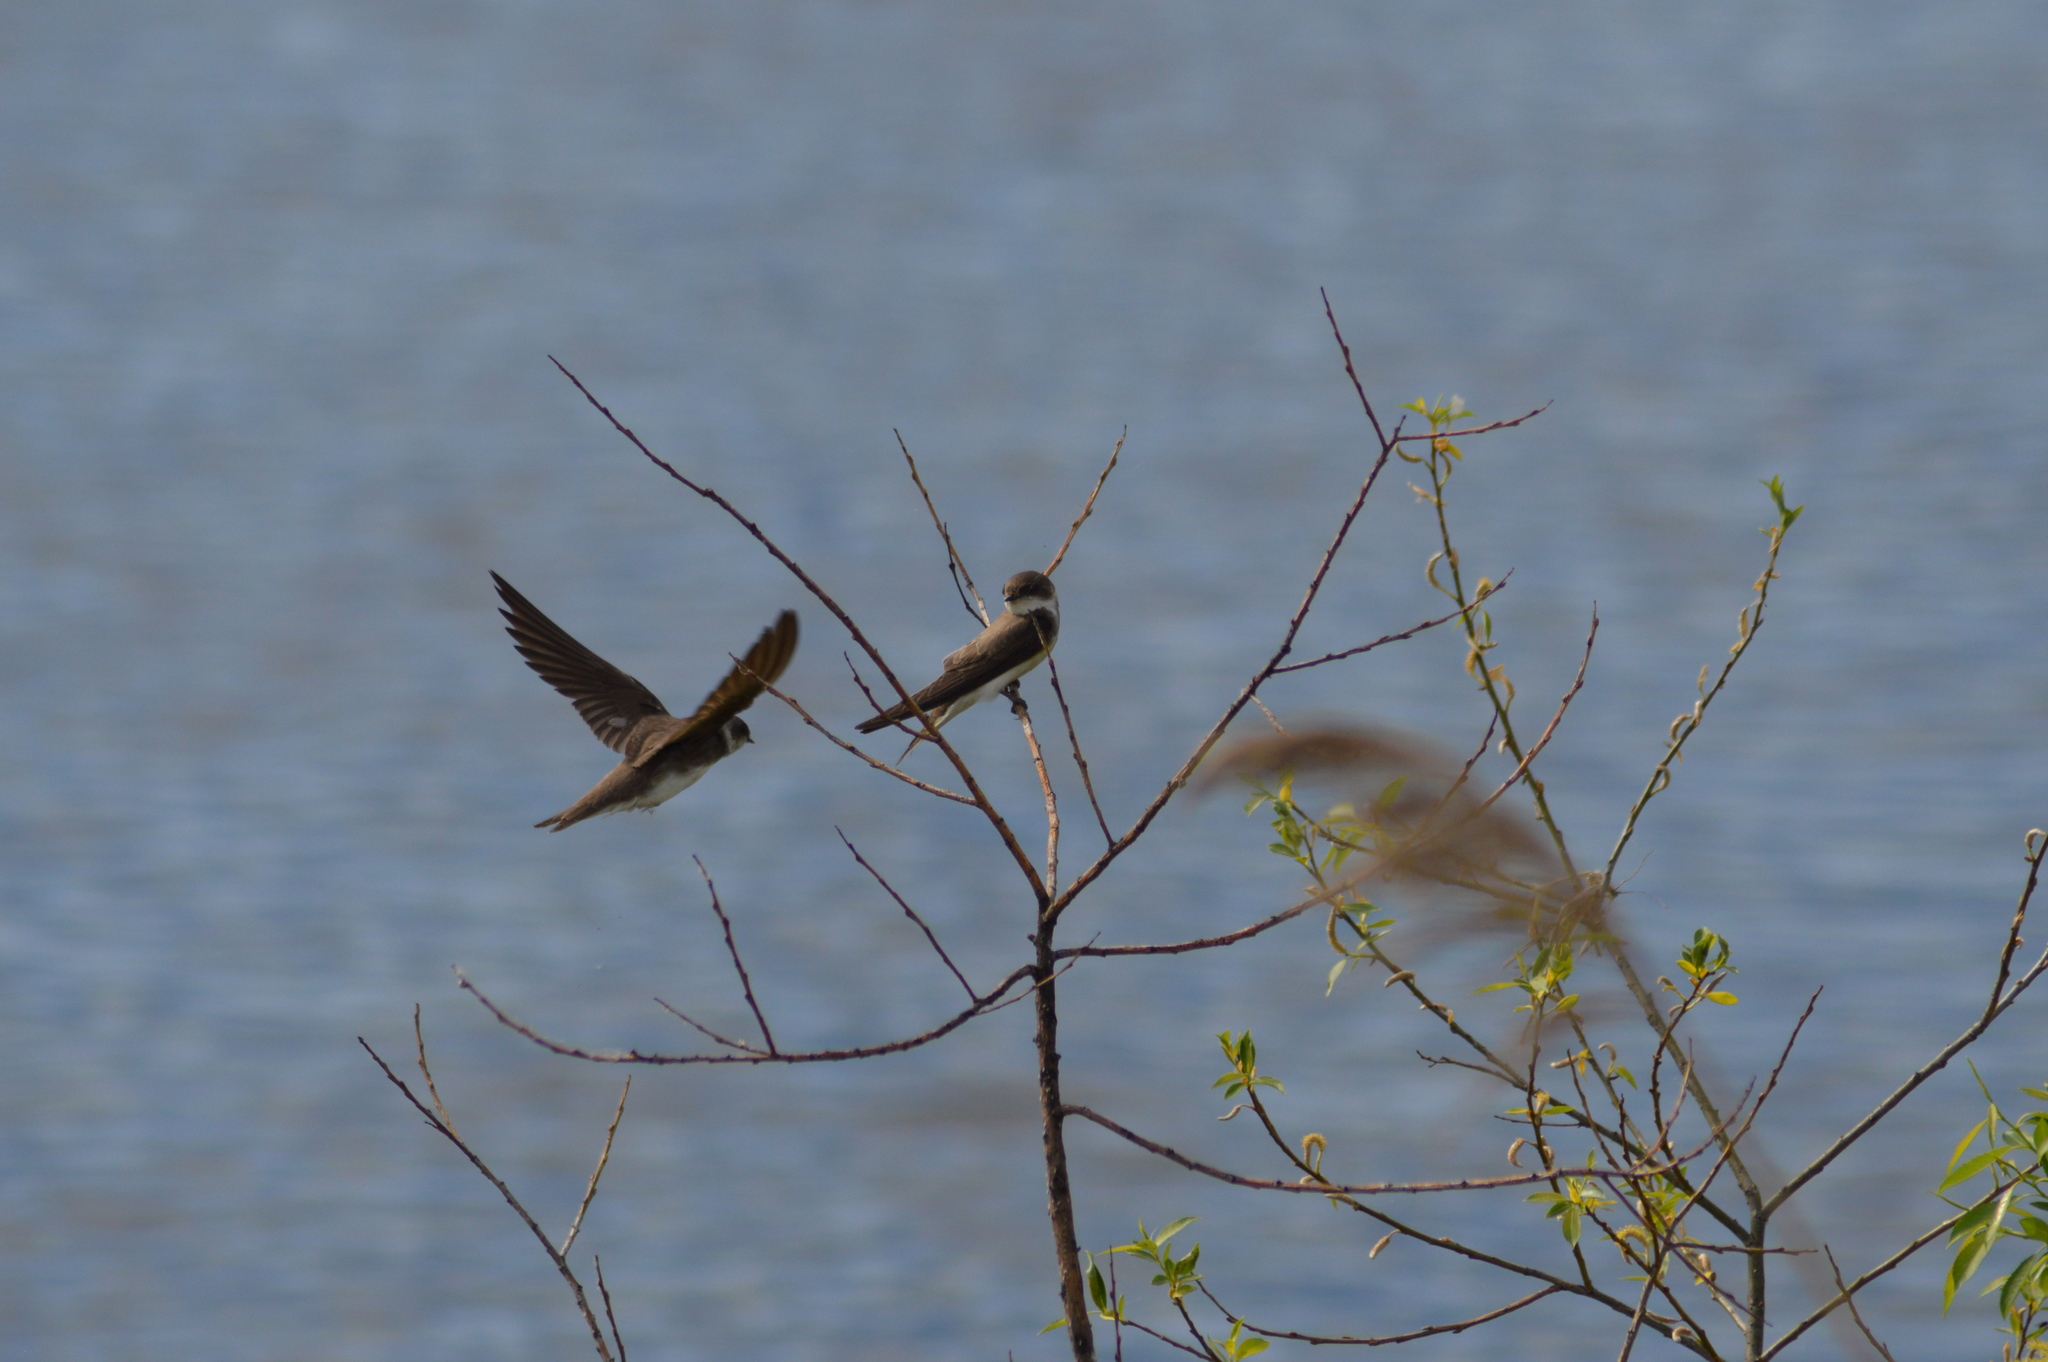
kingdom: Animalia
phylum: Chordata
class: Aves
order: Passeriformes
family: Hirundinidae
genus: Riparia
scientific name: Riparia riparia
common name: Sand martin
